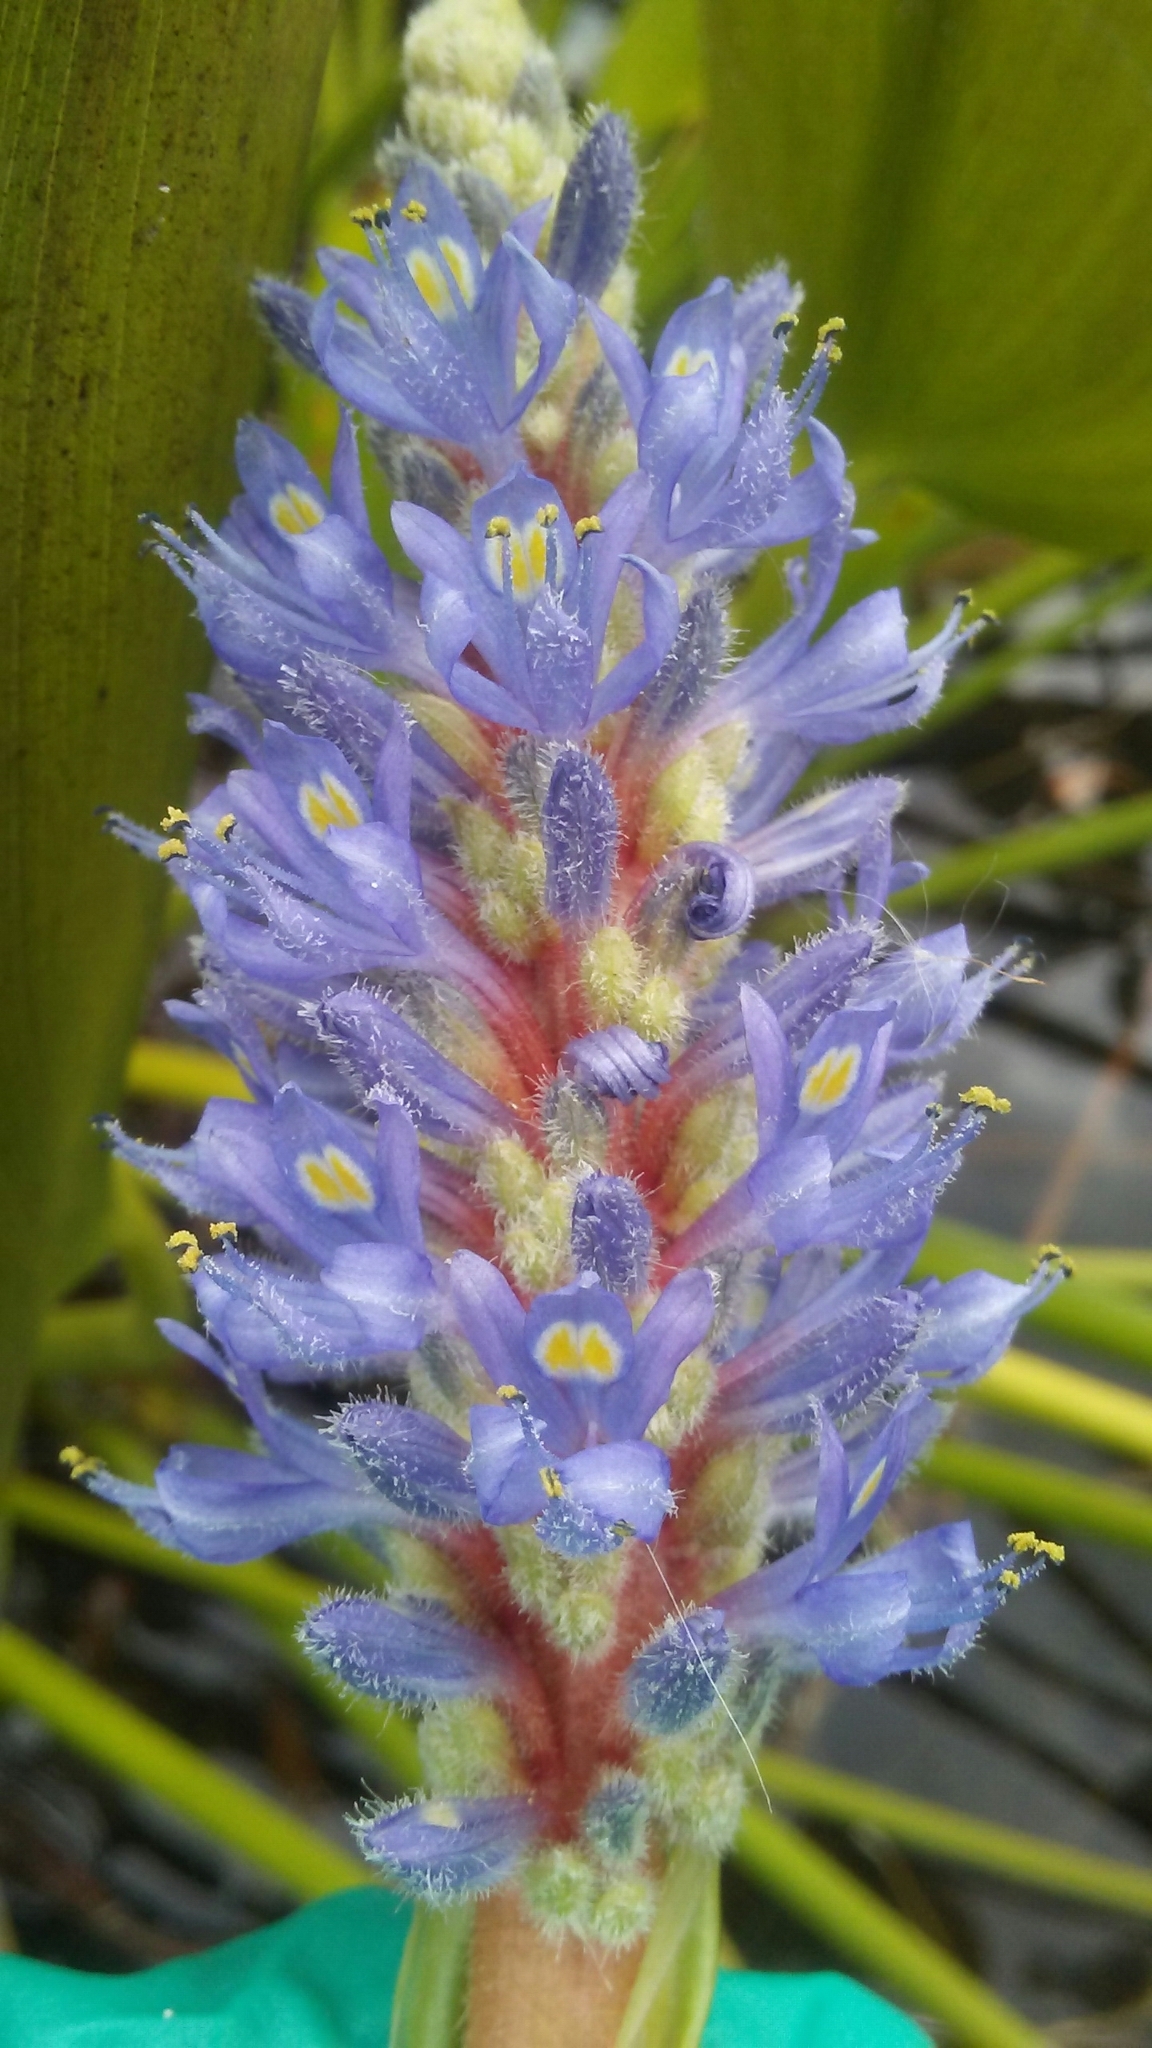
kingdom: Plantae
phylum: Tracheophyta
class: Liliopsida
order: Commelinales
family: Pontederiaceae
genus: Pontederia
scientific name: Pontederia cordata
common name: Pickerelweed
